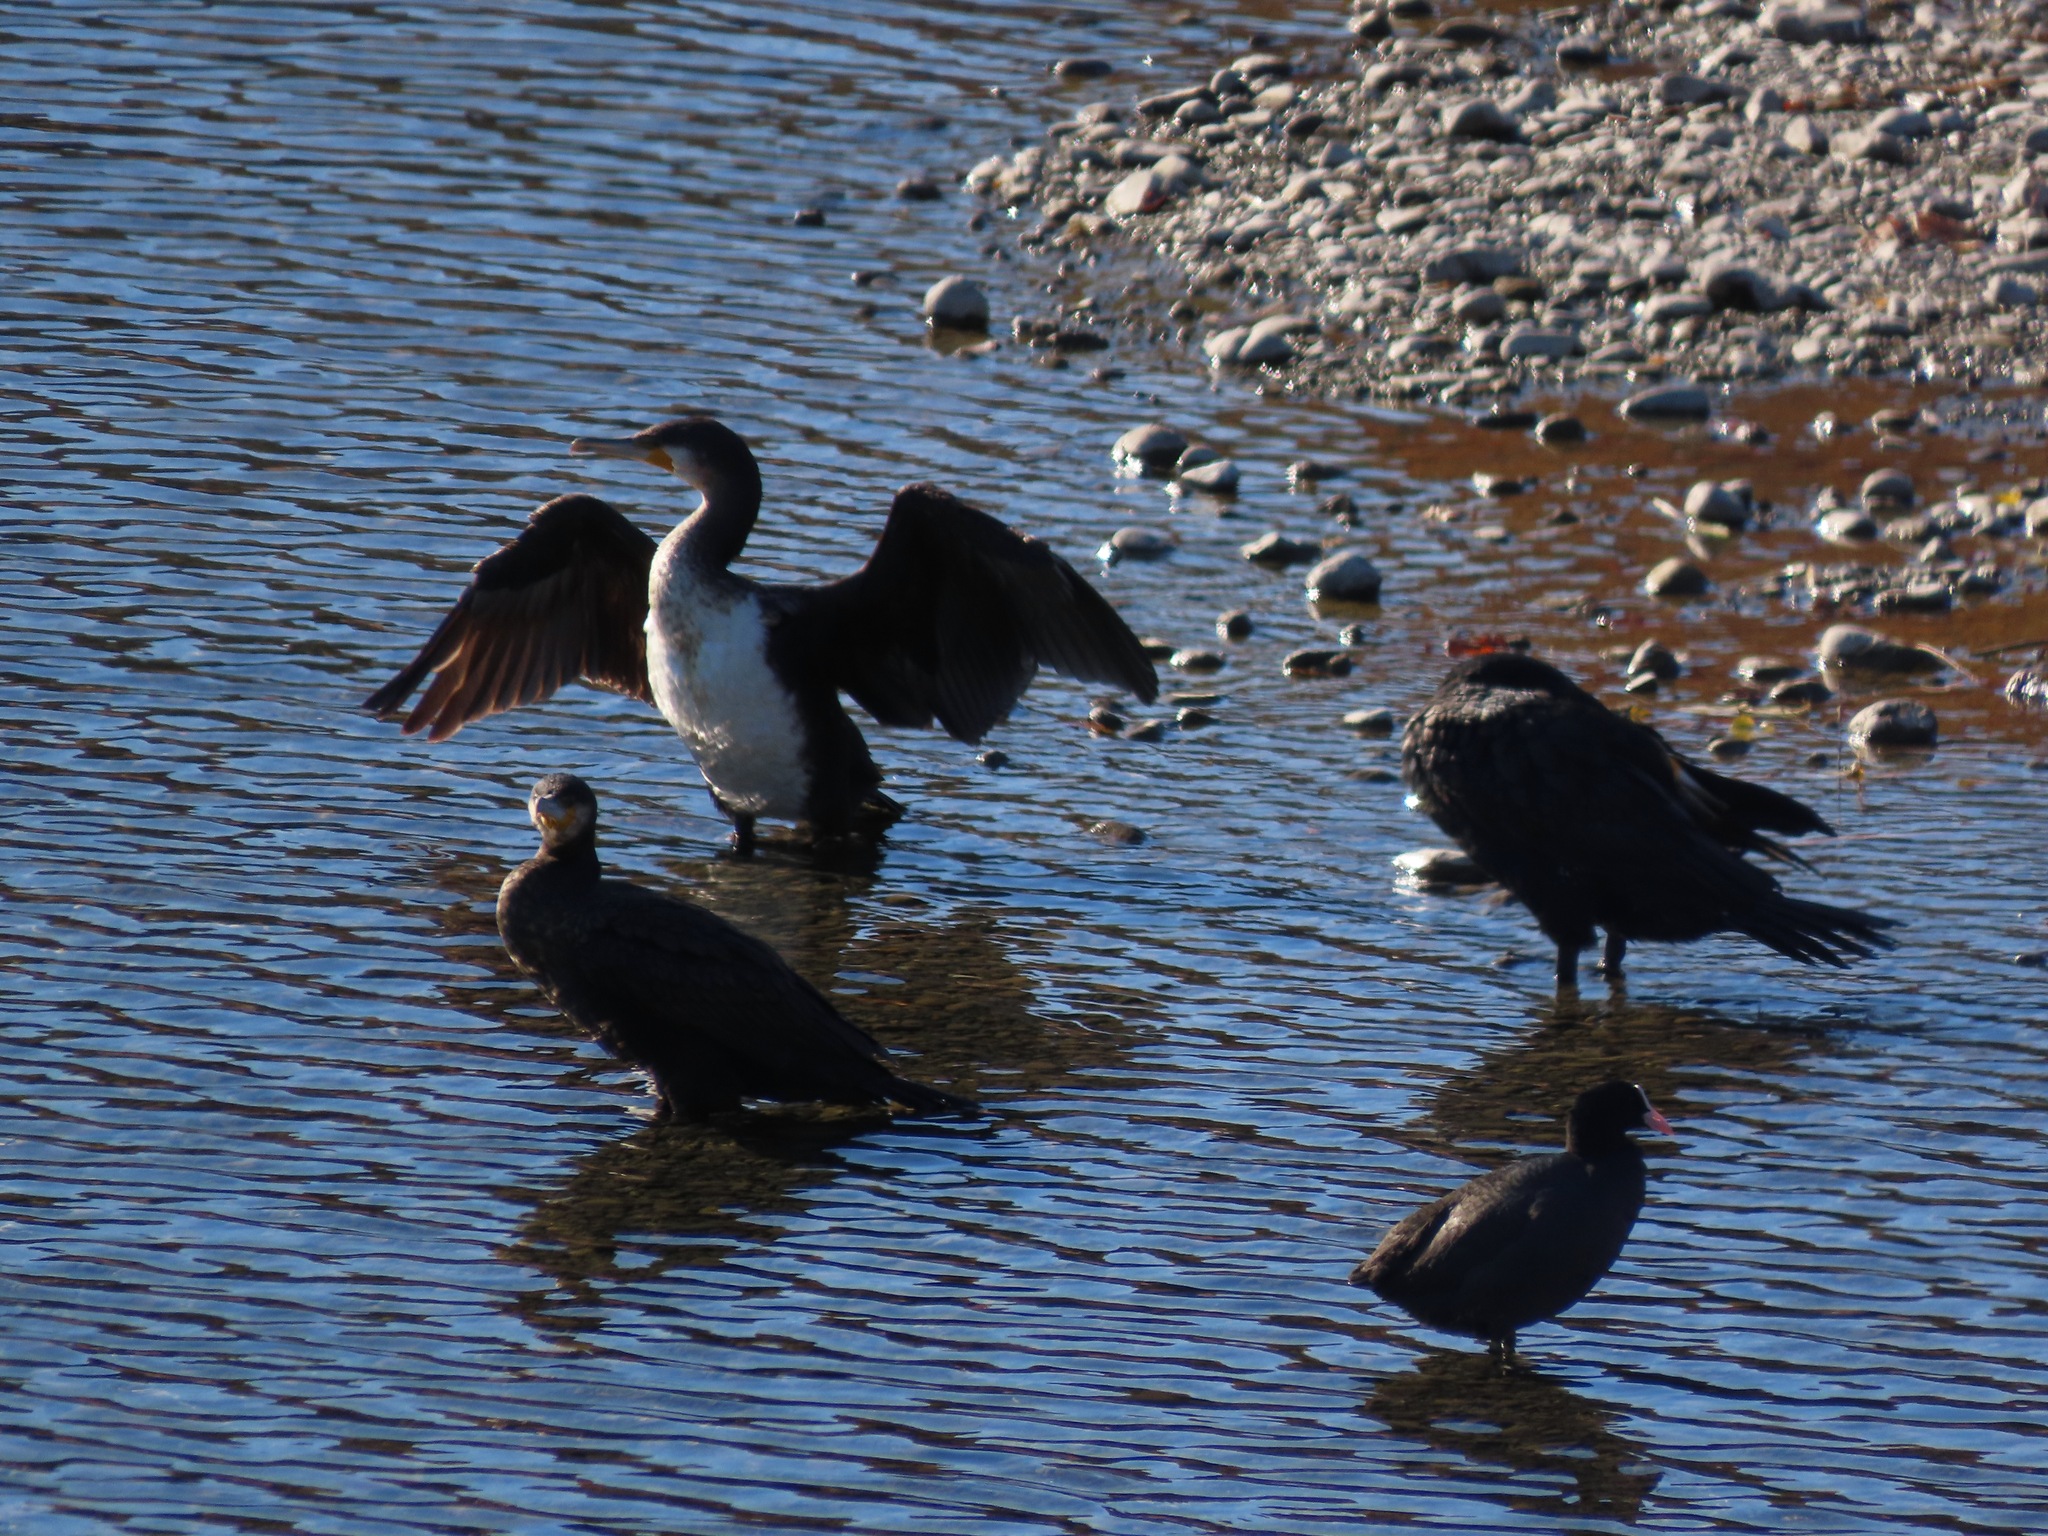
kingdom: Animalia
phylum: Chordata
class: Aves
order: Suliformes
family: Phalacrocoracidae
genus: Phalacrocorax
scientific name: Phalacrocorax carbo
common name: Great cormorant
